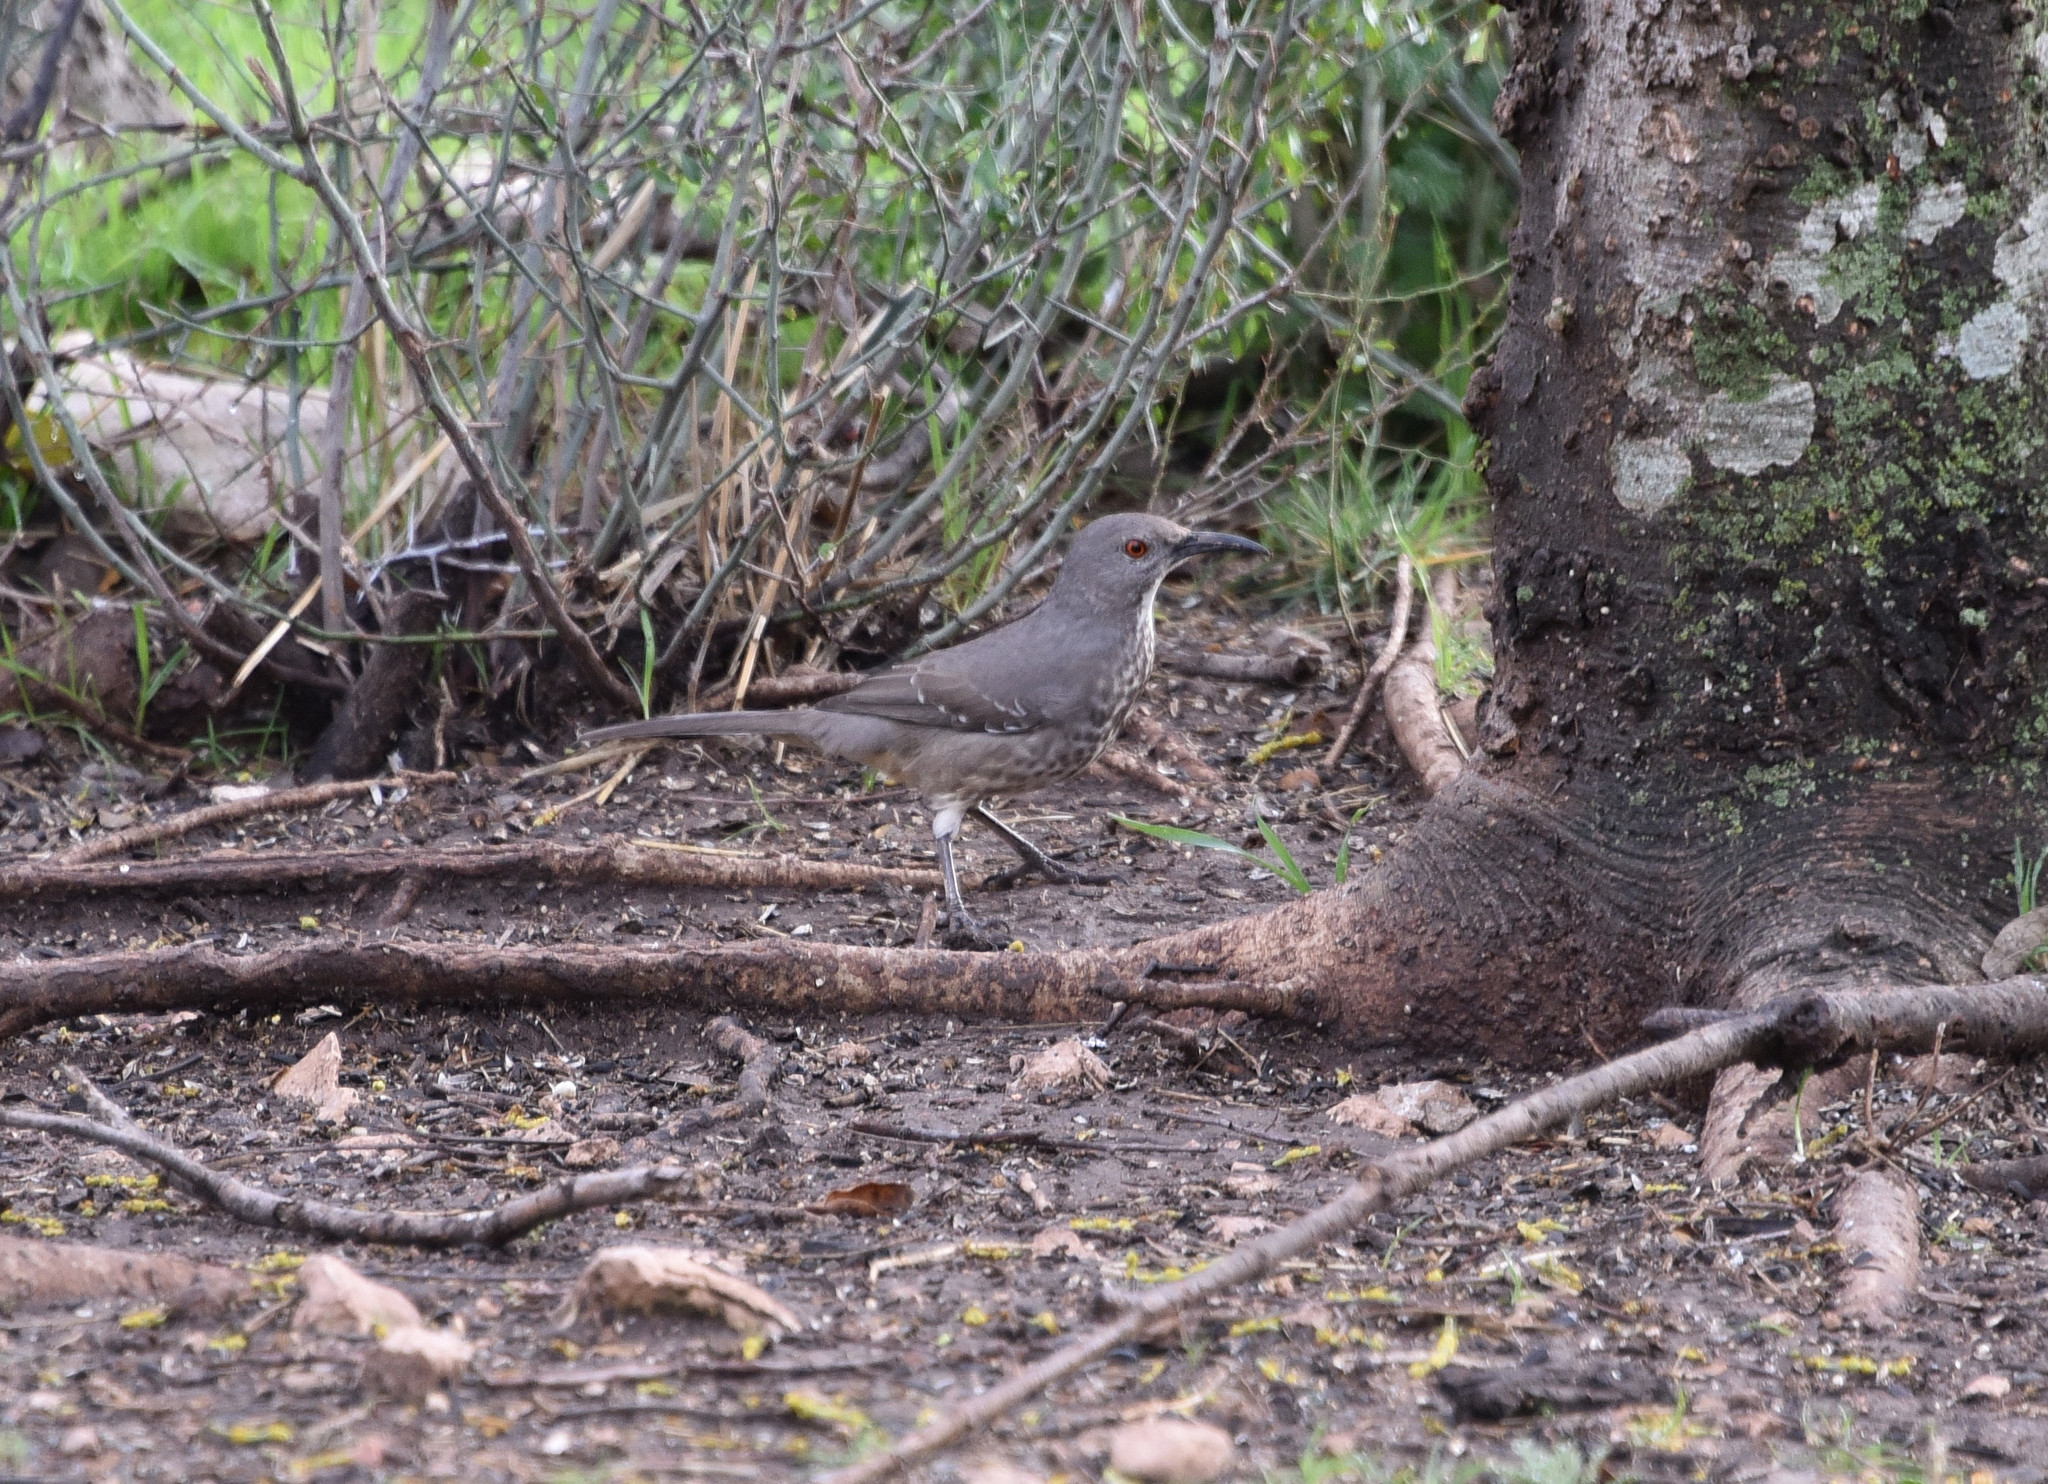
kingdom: Animalia
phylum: Chordata
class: Aves
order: Passeriformes
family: Mimidae
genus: Toxostoma
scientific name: Toxostoma curvirostre
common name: Curve-billed thrasher
